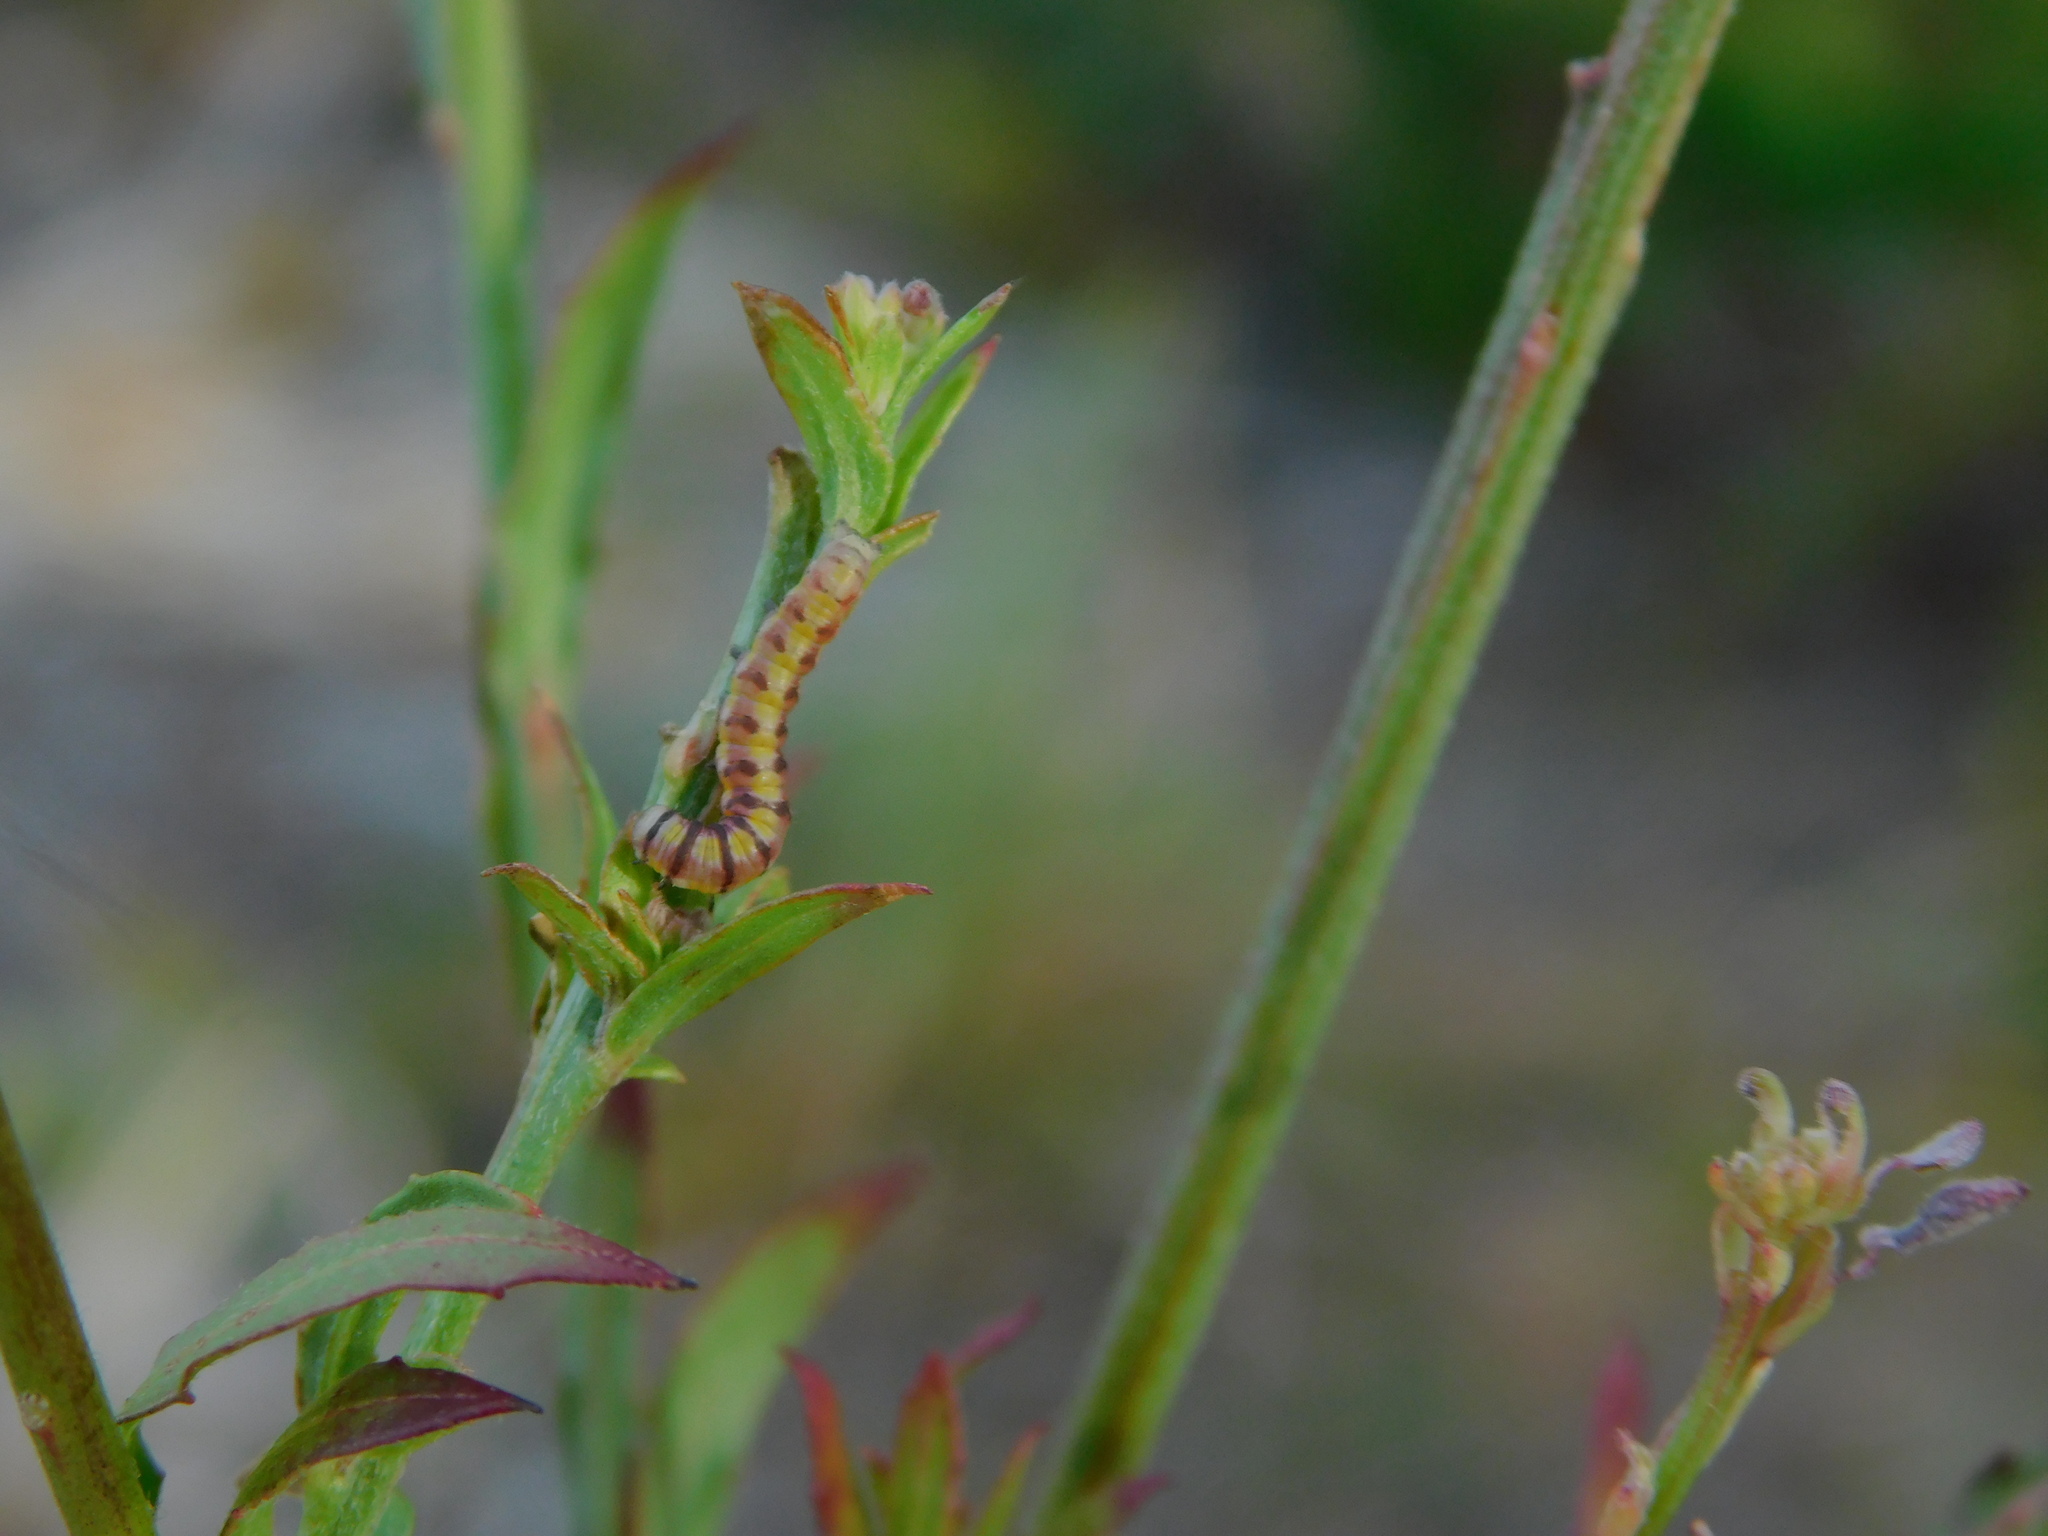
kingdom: Animalia
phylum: Arthropoda
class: Insecta
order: Lepidoptera
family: Noctuidae
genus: Schinia
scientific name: Schinia gaurae
